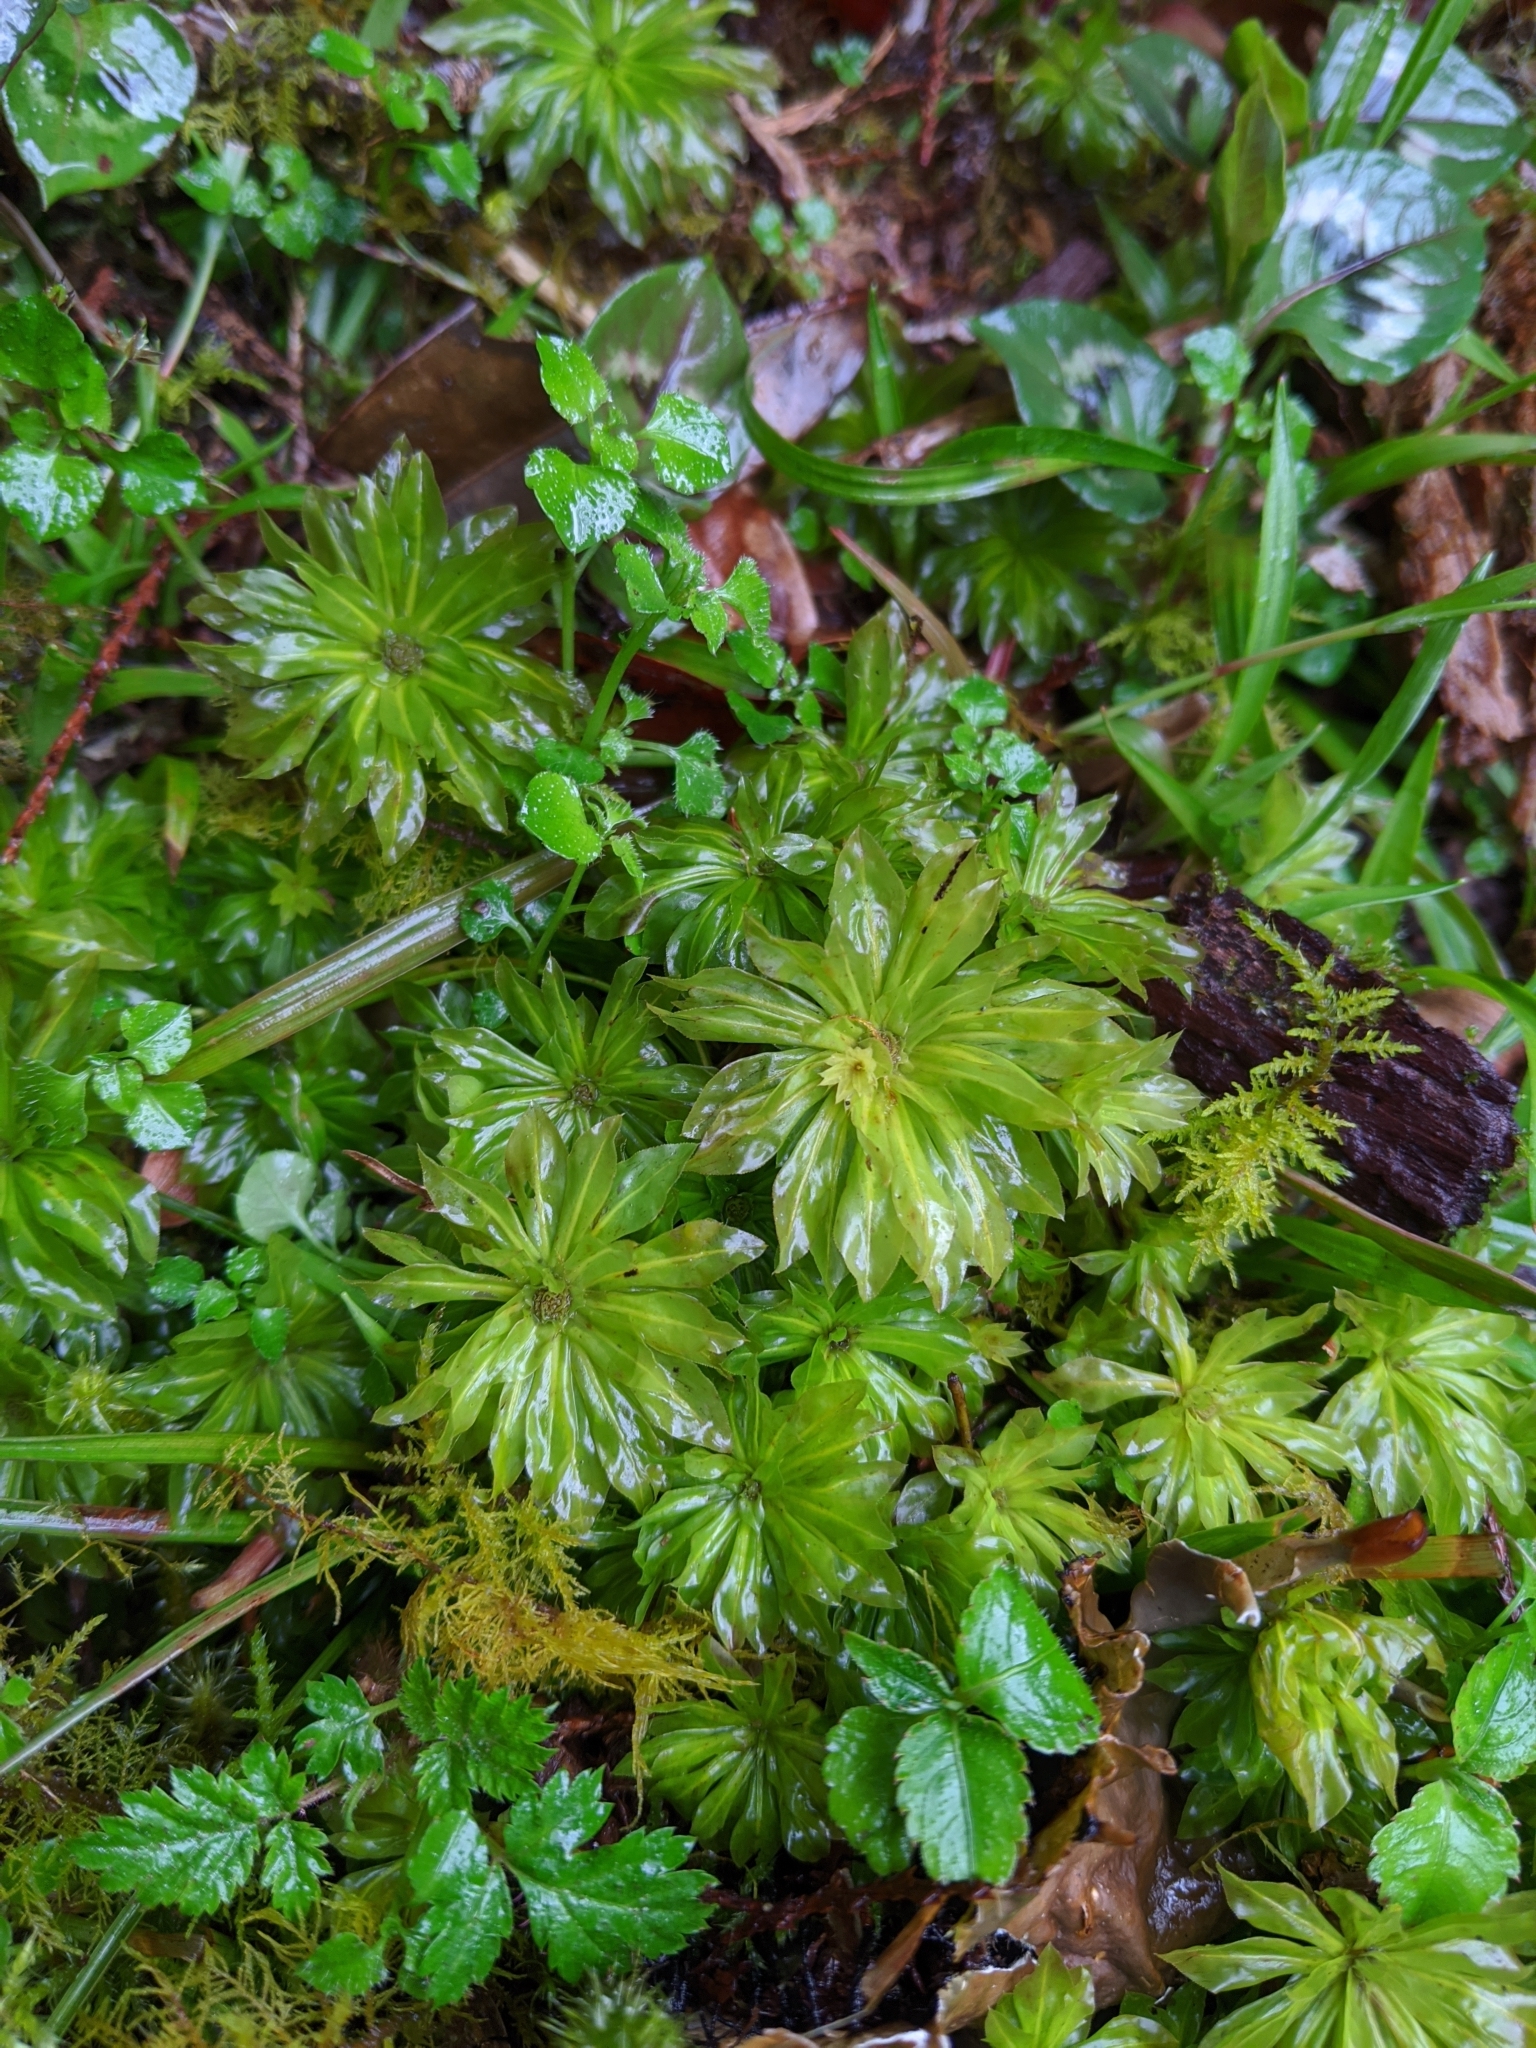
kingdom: Plantae
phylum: Bryophyta
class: Bryopsida
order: Bryales
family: Bryaceae
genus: Rhodobryum
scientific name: Rhodobryum giganteum
